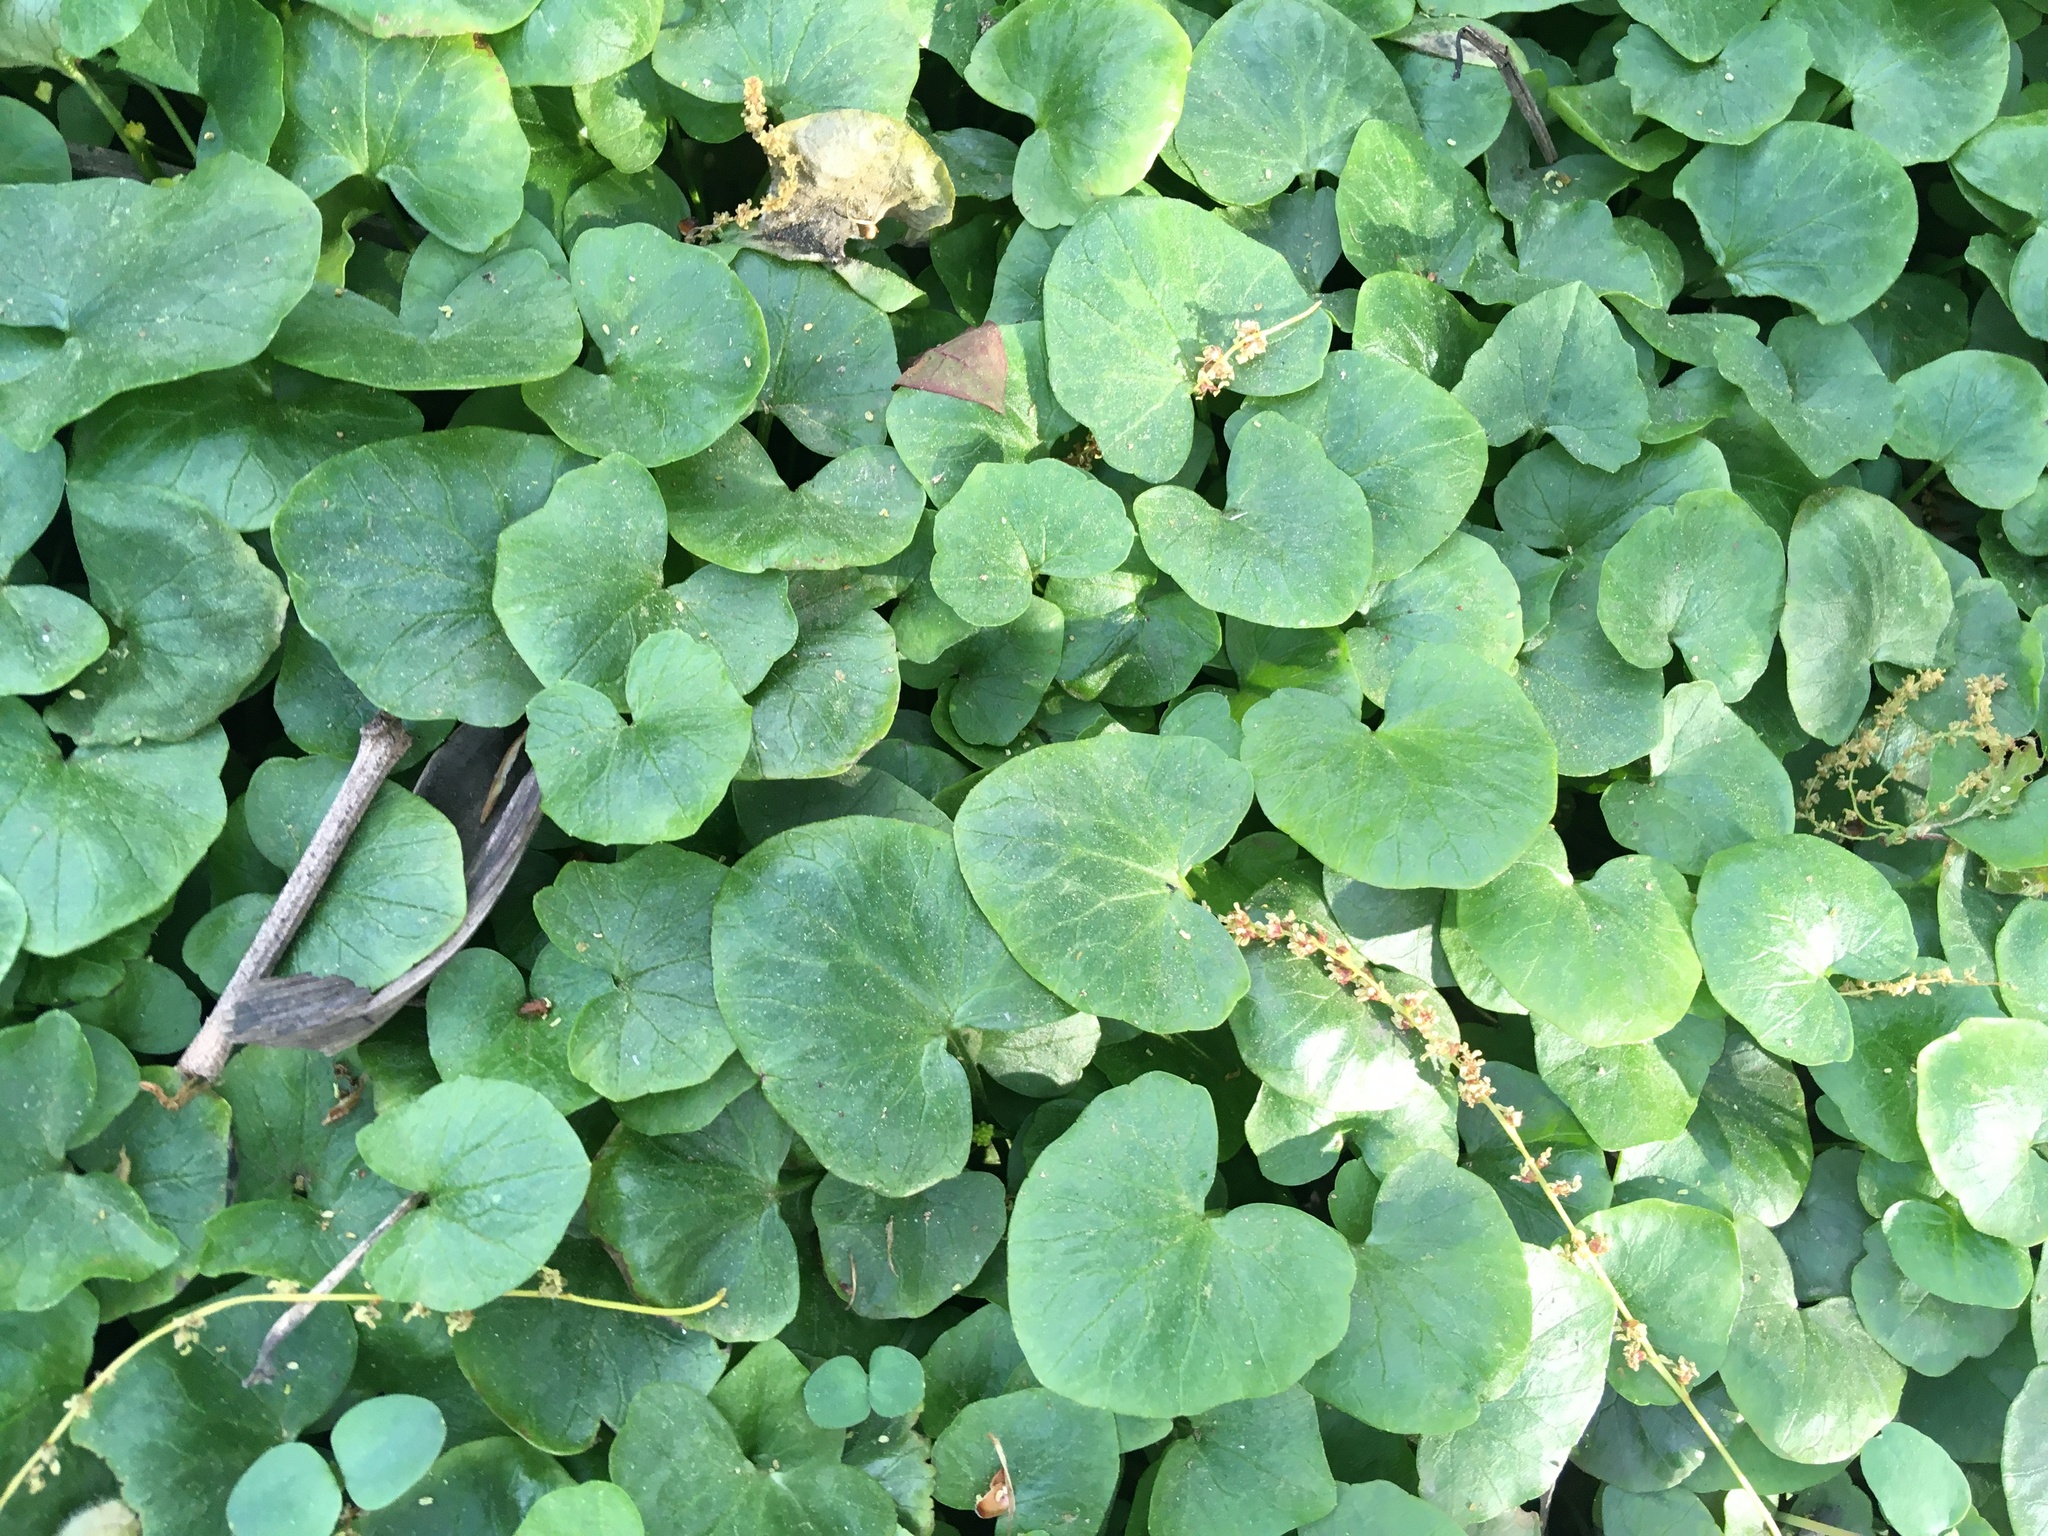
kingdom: Plantae
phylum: Tracheophyta
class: Magnoliopsida
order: Ranunculales
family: Ranunculaceae
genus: Ficaria
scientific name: Ficaria verna
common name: Lesser celandine
